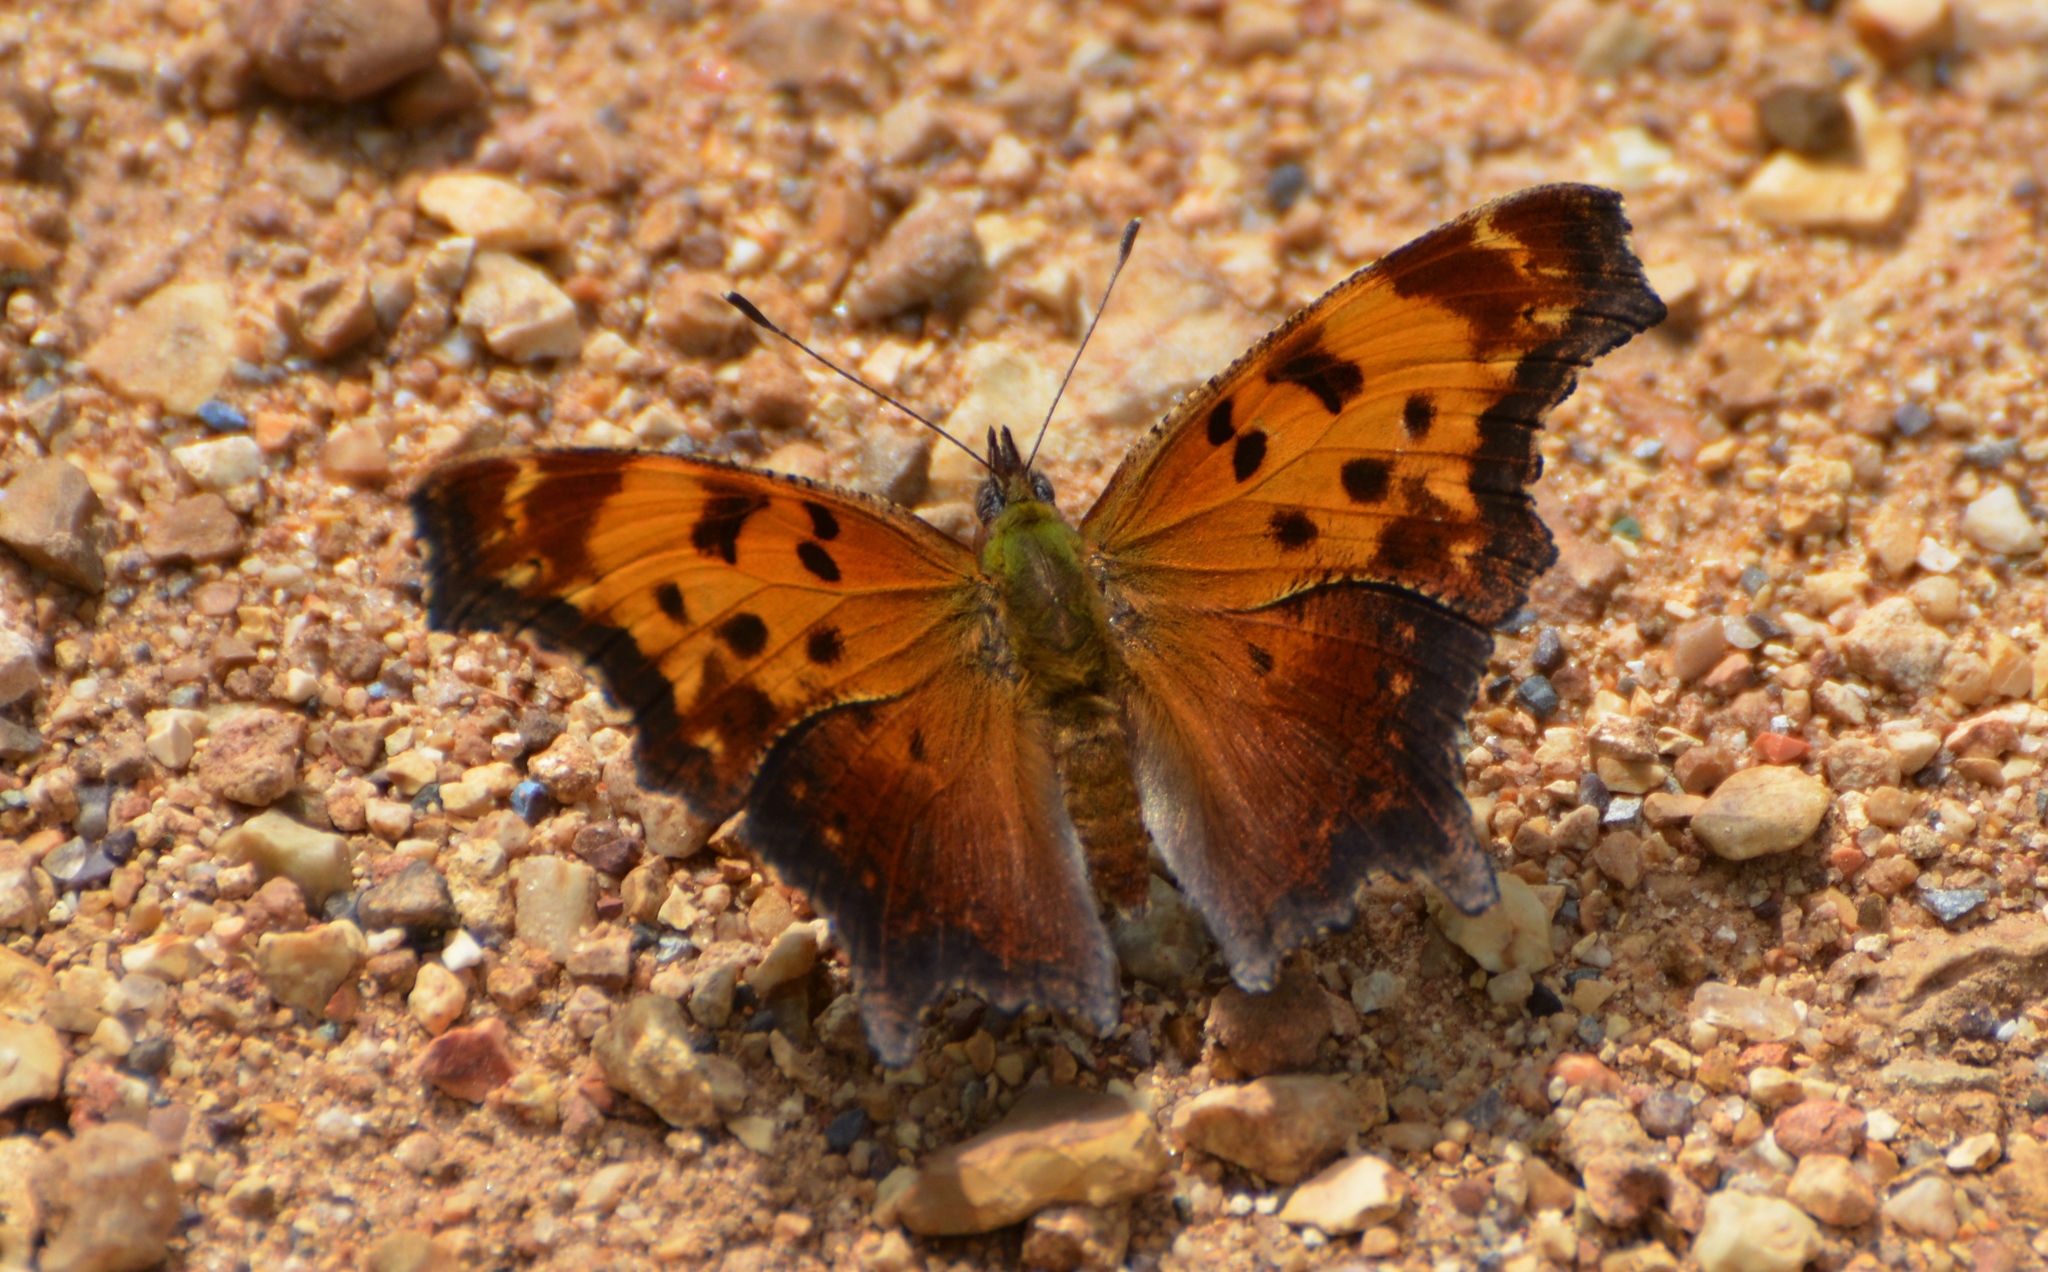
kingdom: Animalia
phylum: Arthropoda
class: Insecta
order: Lepidoptera
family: Nymphalidae
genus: Polygonia
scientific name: Polygonia progne
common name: Gray comma
